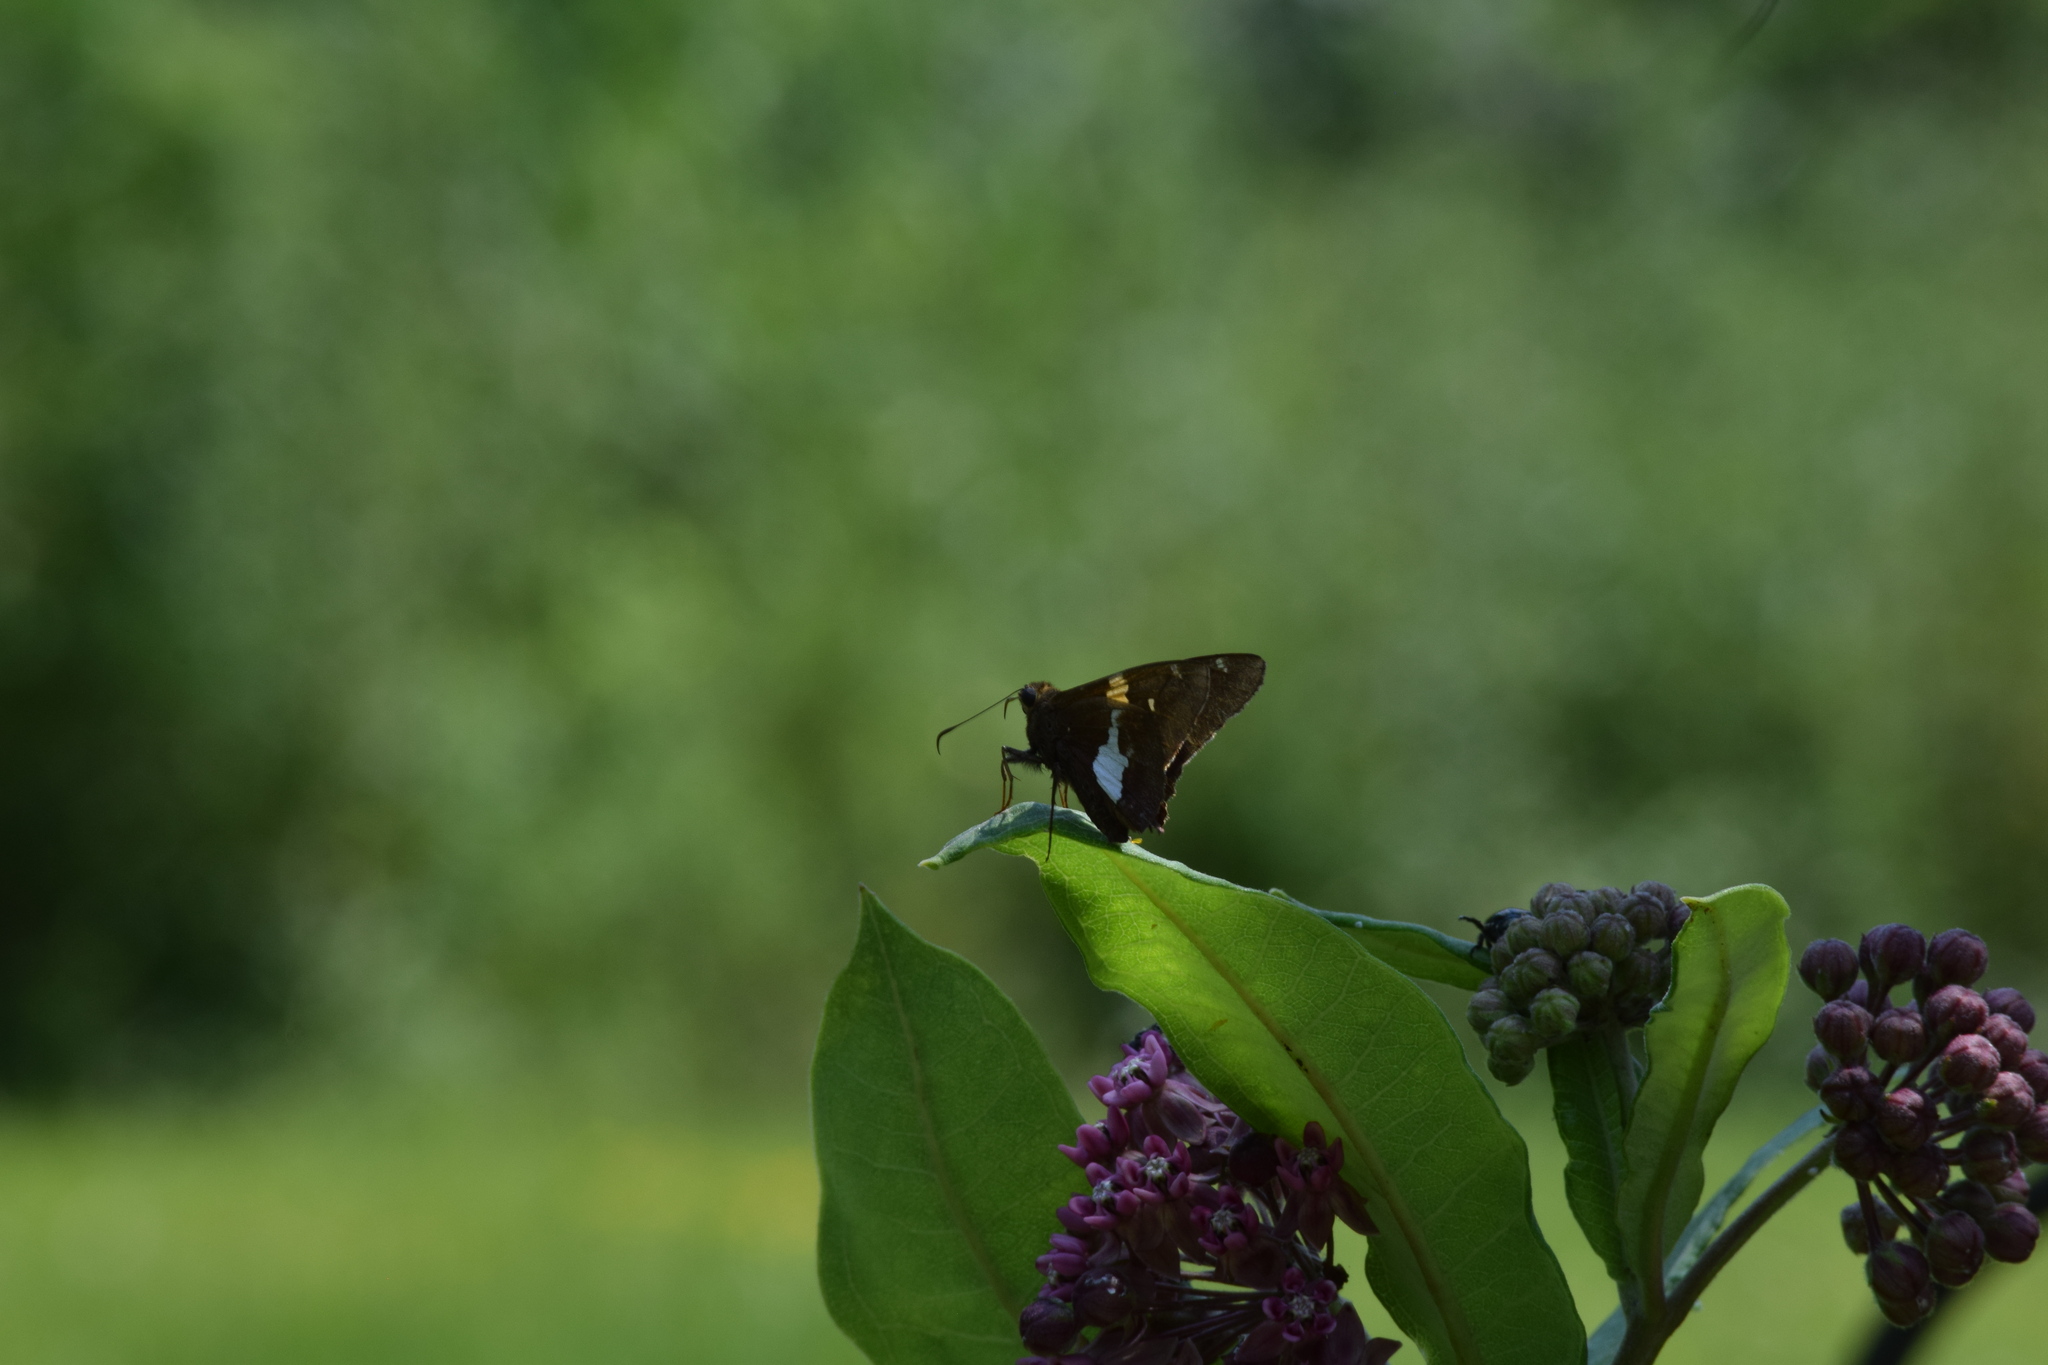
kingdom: Animalia
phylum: Arthropoda
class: Insecta
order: Lepidoptera
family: Hesperiidae
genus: Epargyreus
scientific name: Epargyreus clarus
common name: Silver-spotted skipper
